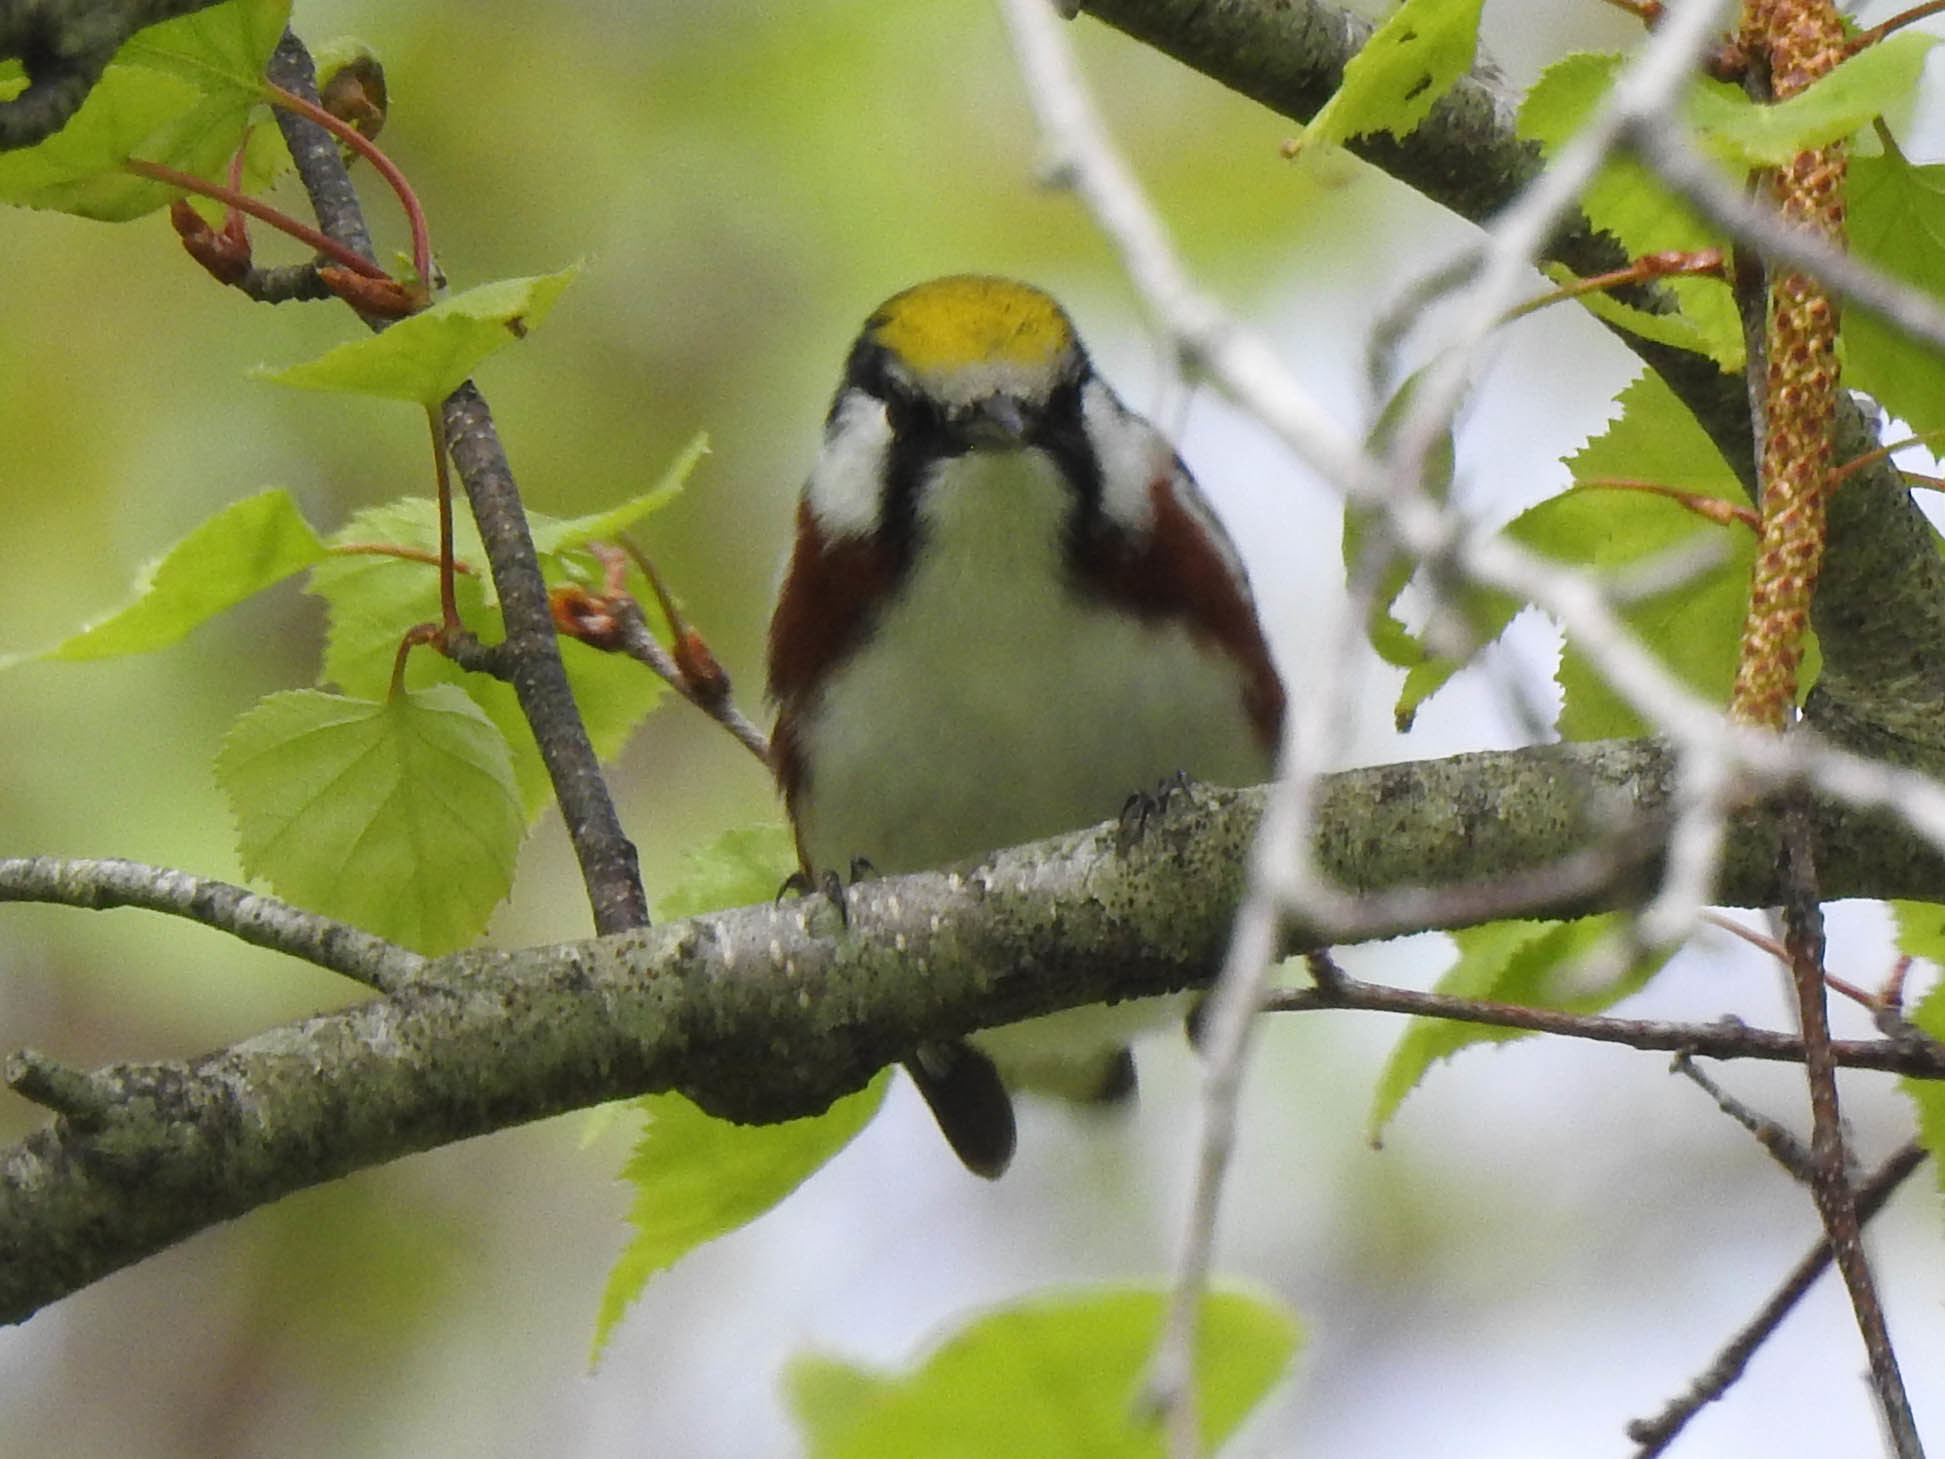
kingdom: Animalia
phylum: Chordata
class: Aves
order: Passeriformes
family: Parulidae
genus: Setophaga
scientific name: Setophaga pensylvanica
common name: Chestnut-sided warbler
